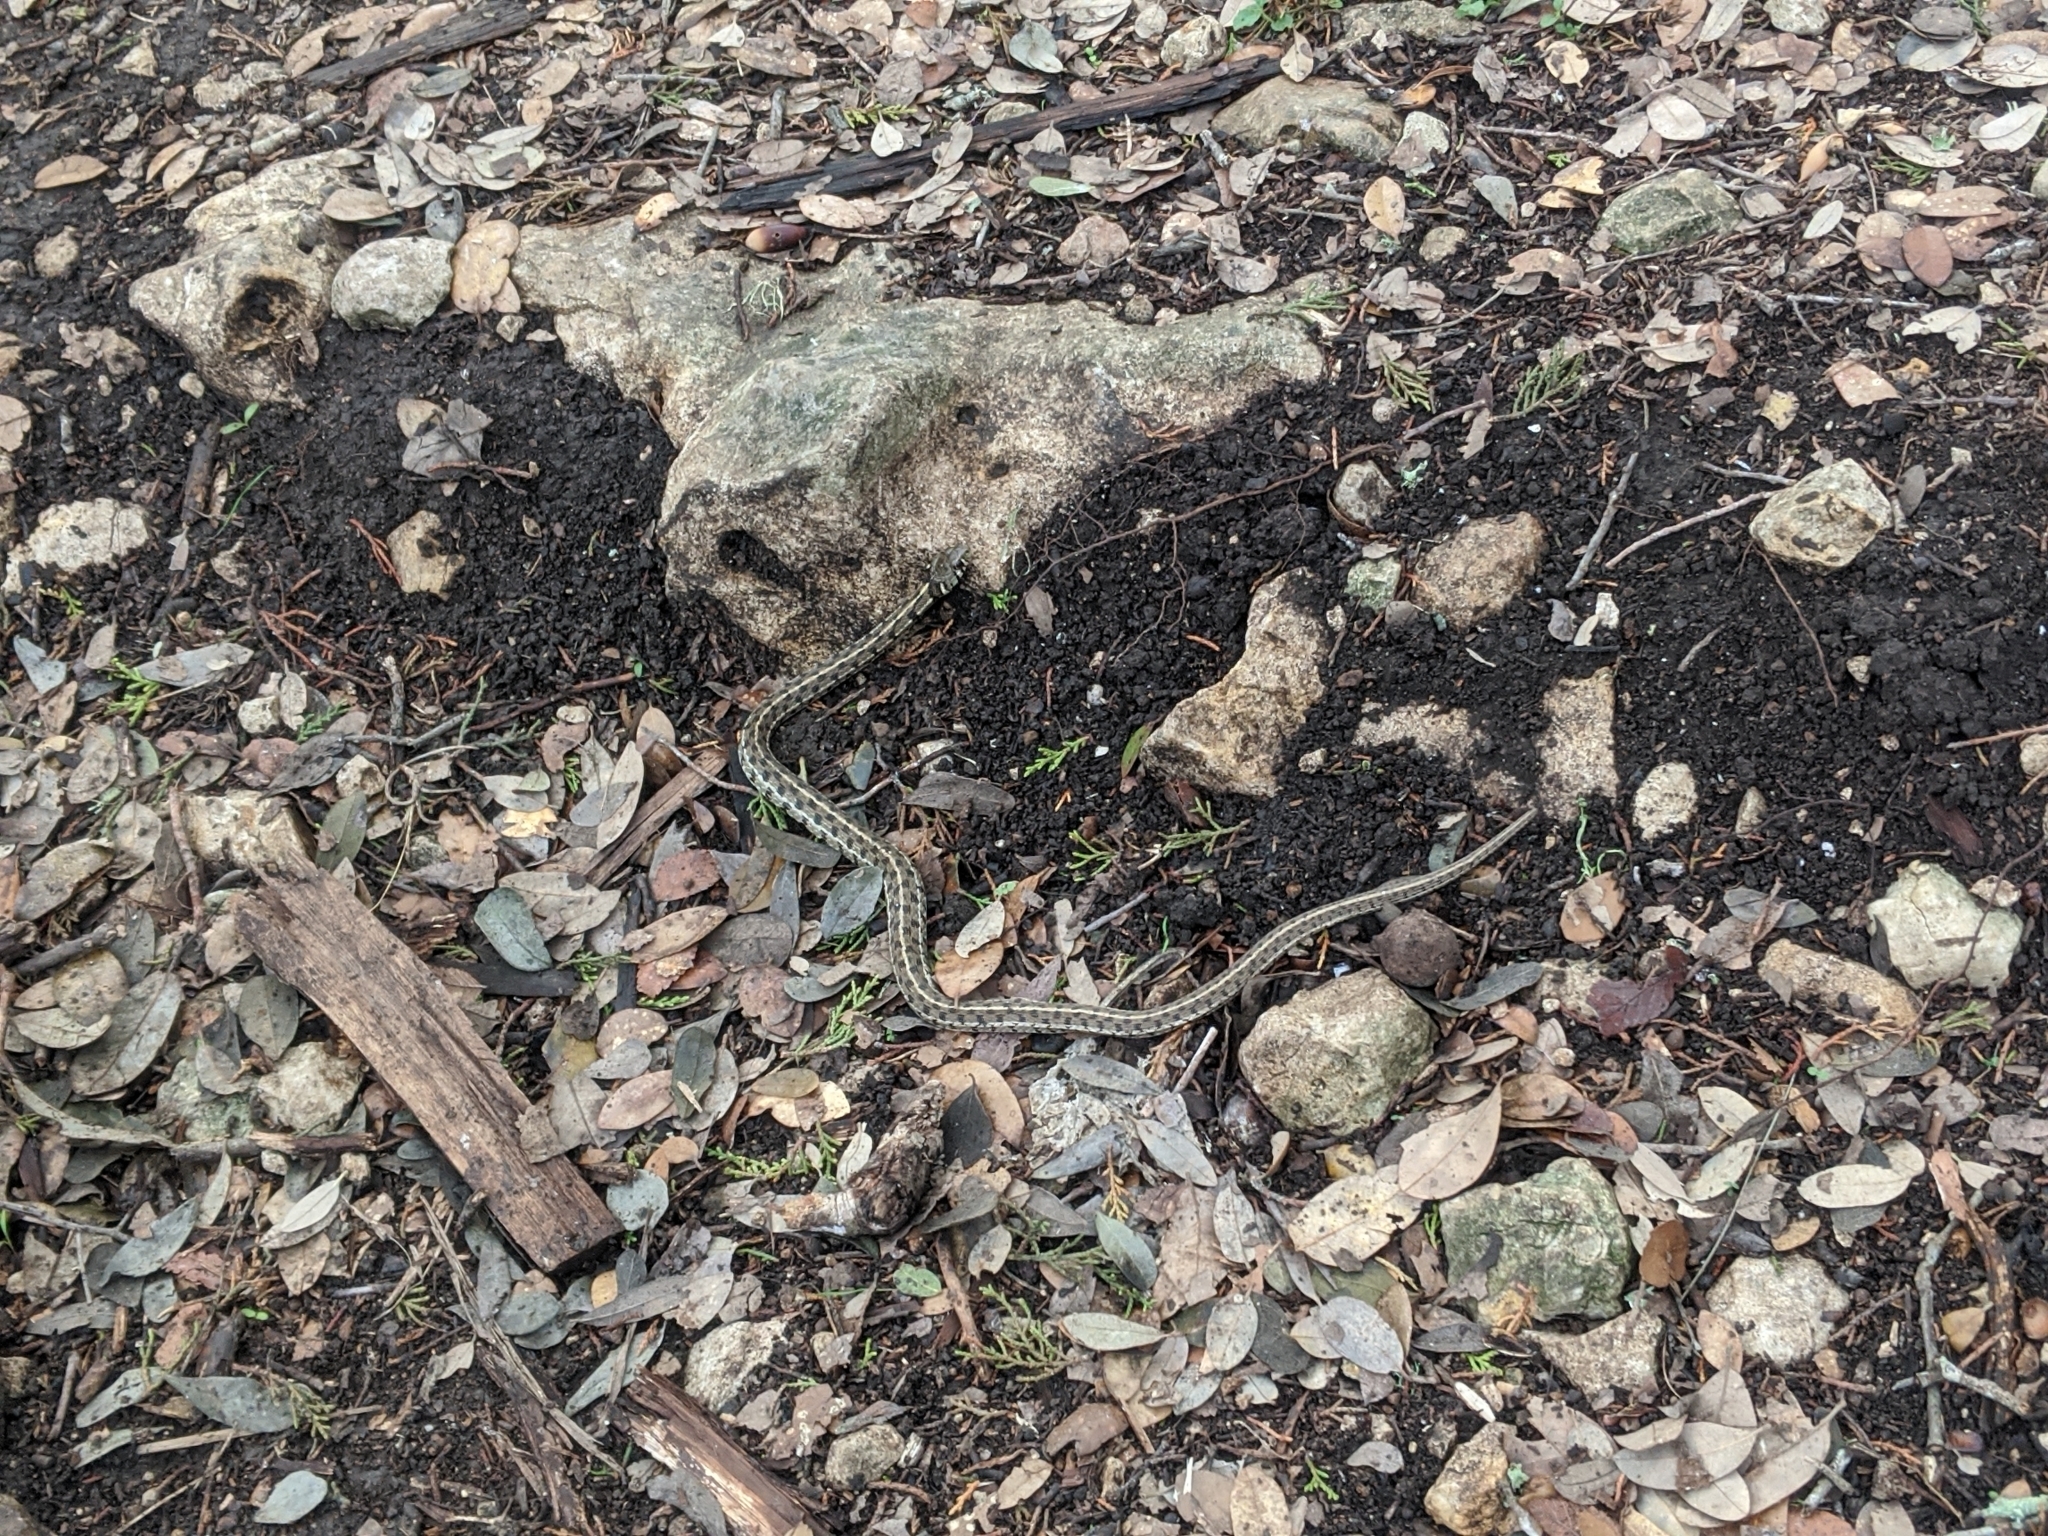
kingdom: Animalia
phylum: Chordata
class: Squamata
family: Colubridae
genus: Thamnophis
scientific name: Thamnophis marcianus
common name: Checkered garter snake
